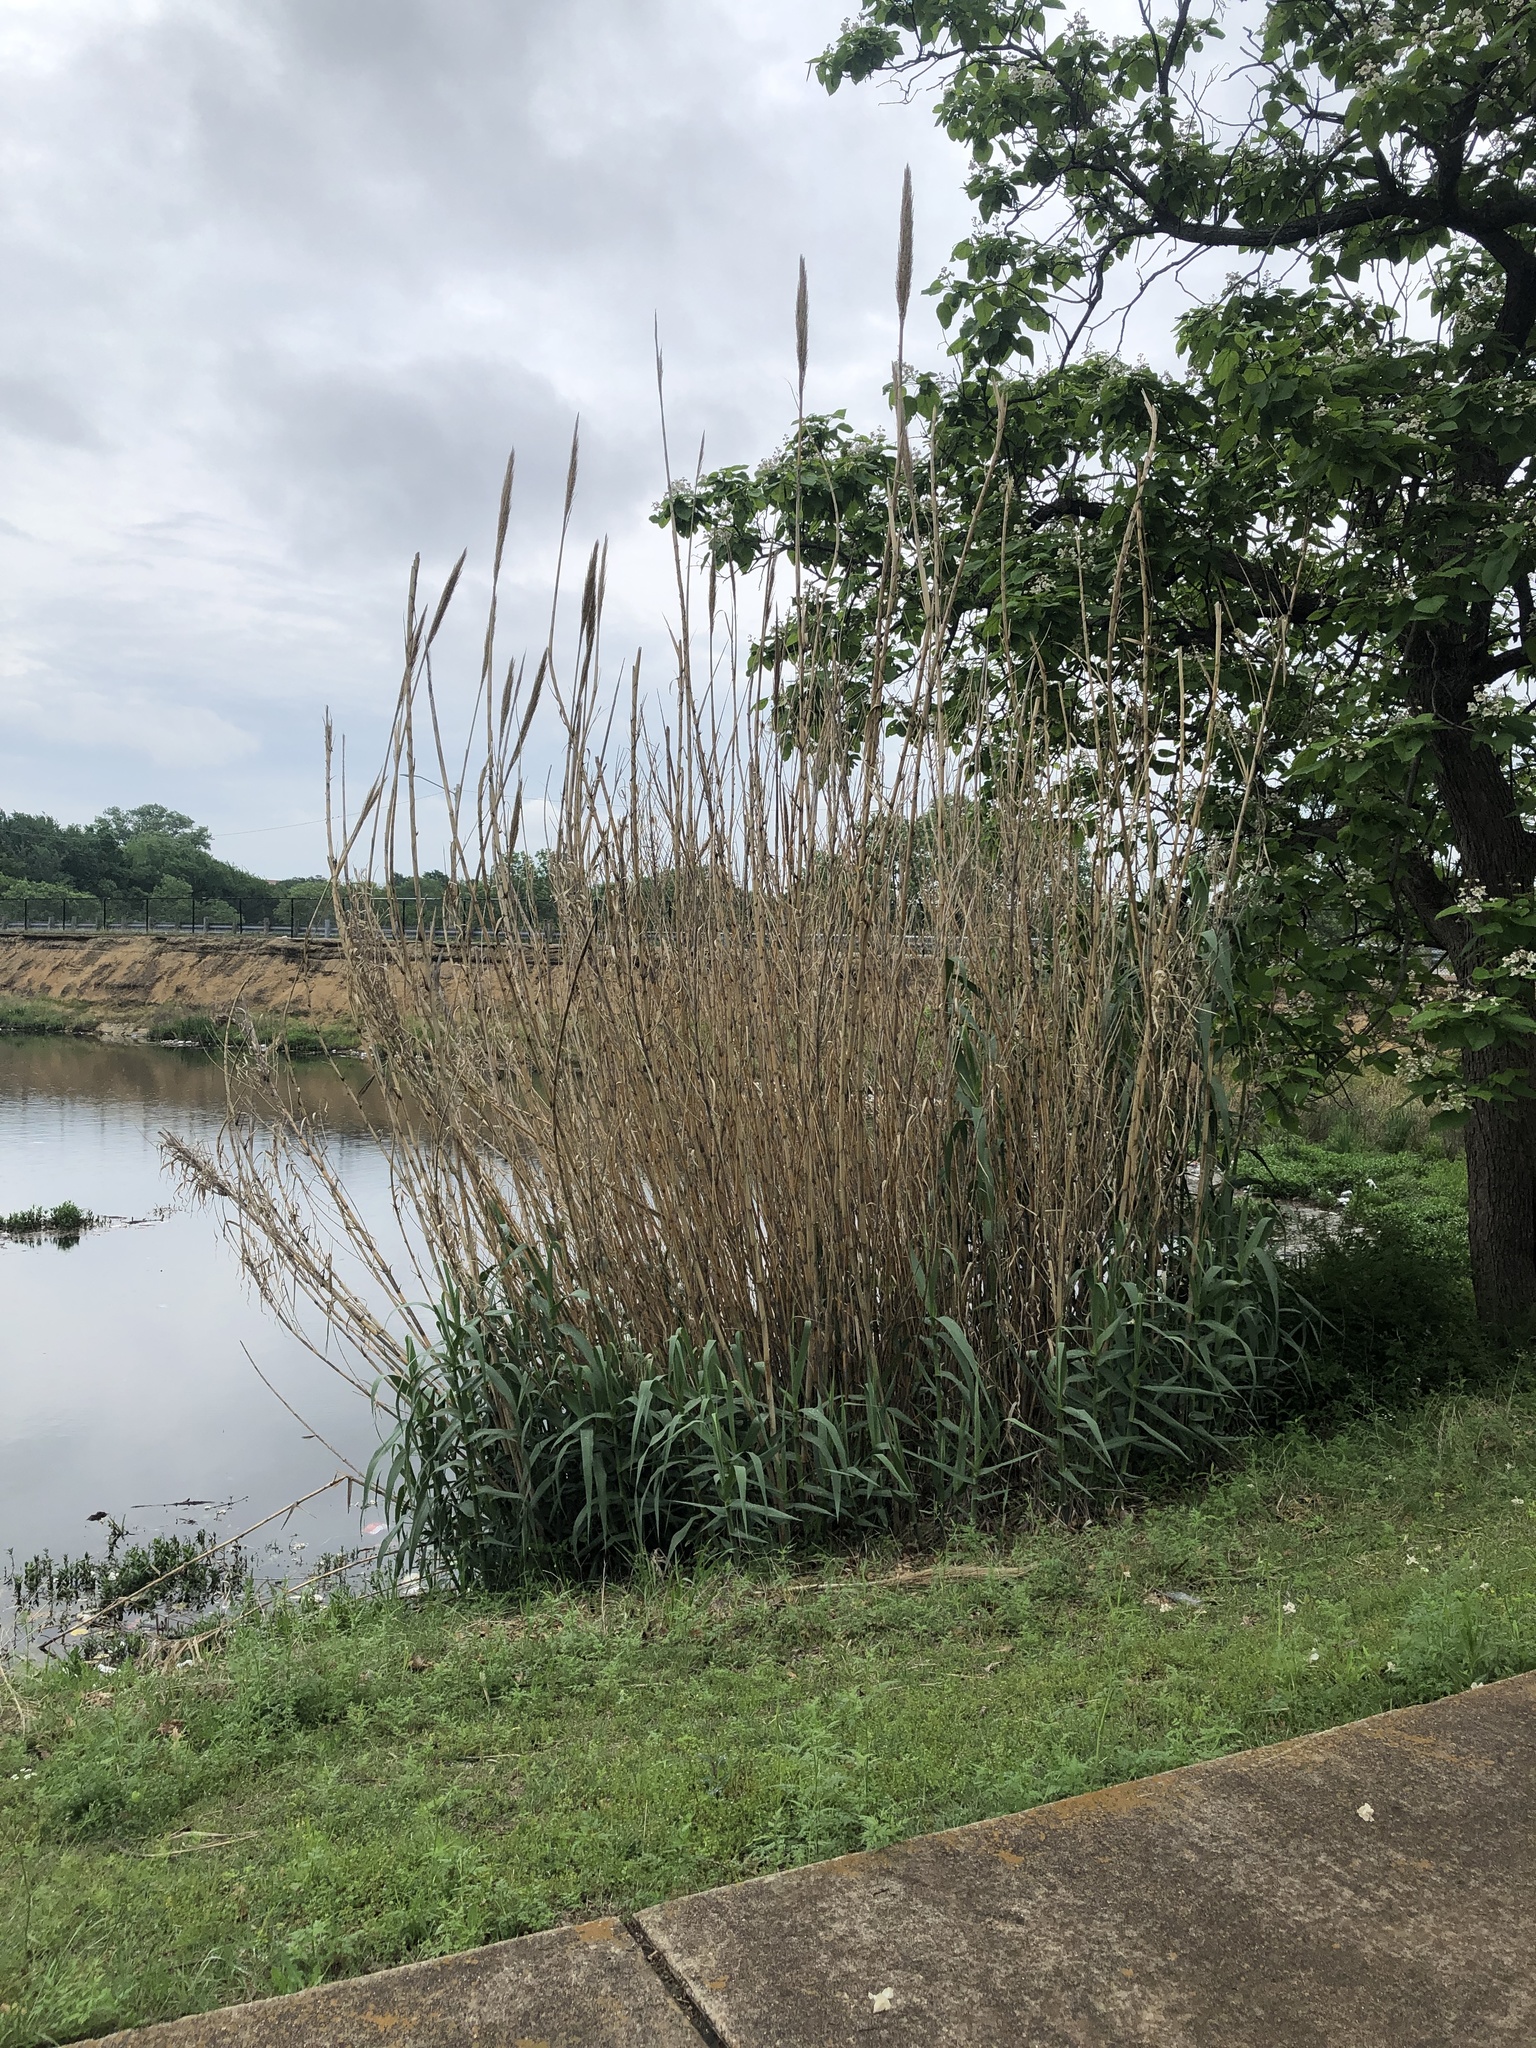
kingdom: Plantae
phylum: Tracheophyta
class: Liliopsida
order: Poales
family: Poaceae
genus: Arundo
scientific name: Arundo donax
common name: Giant reed
